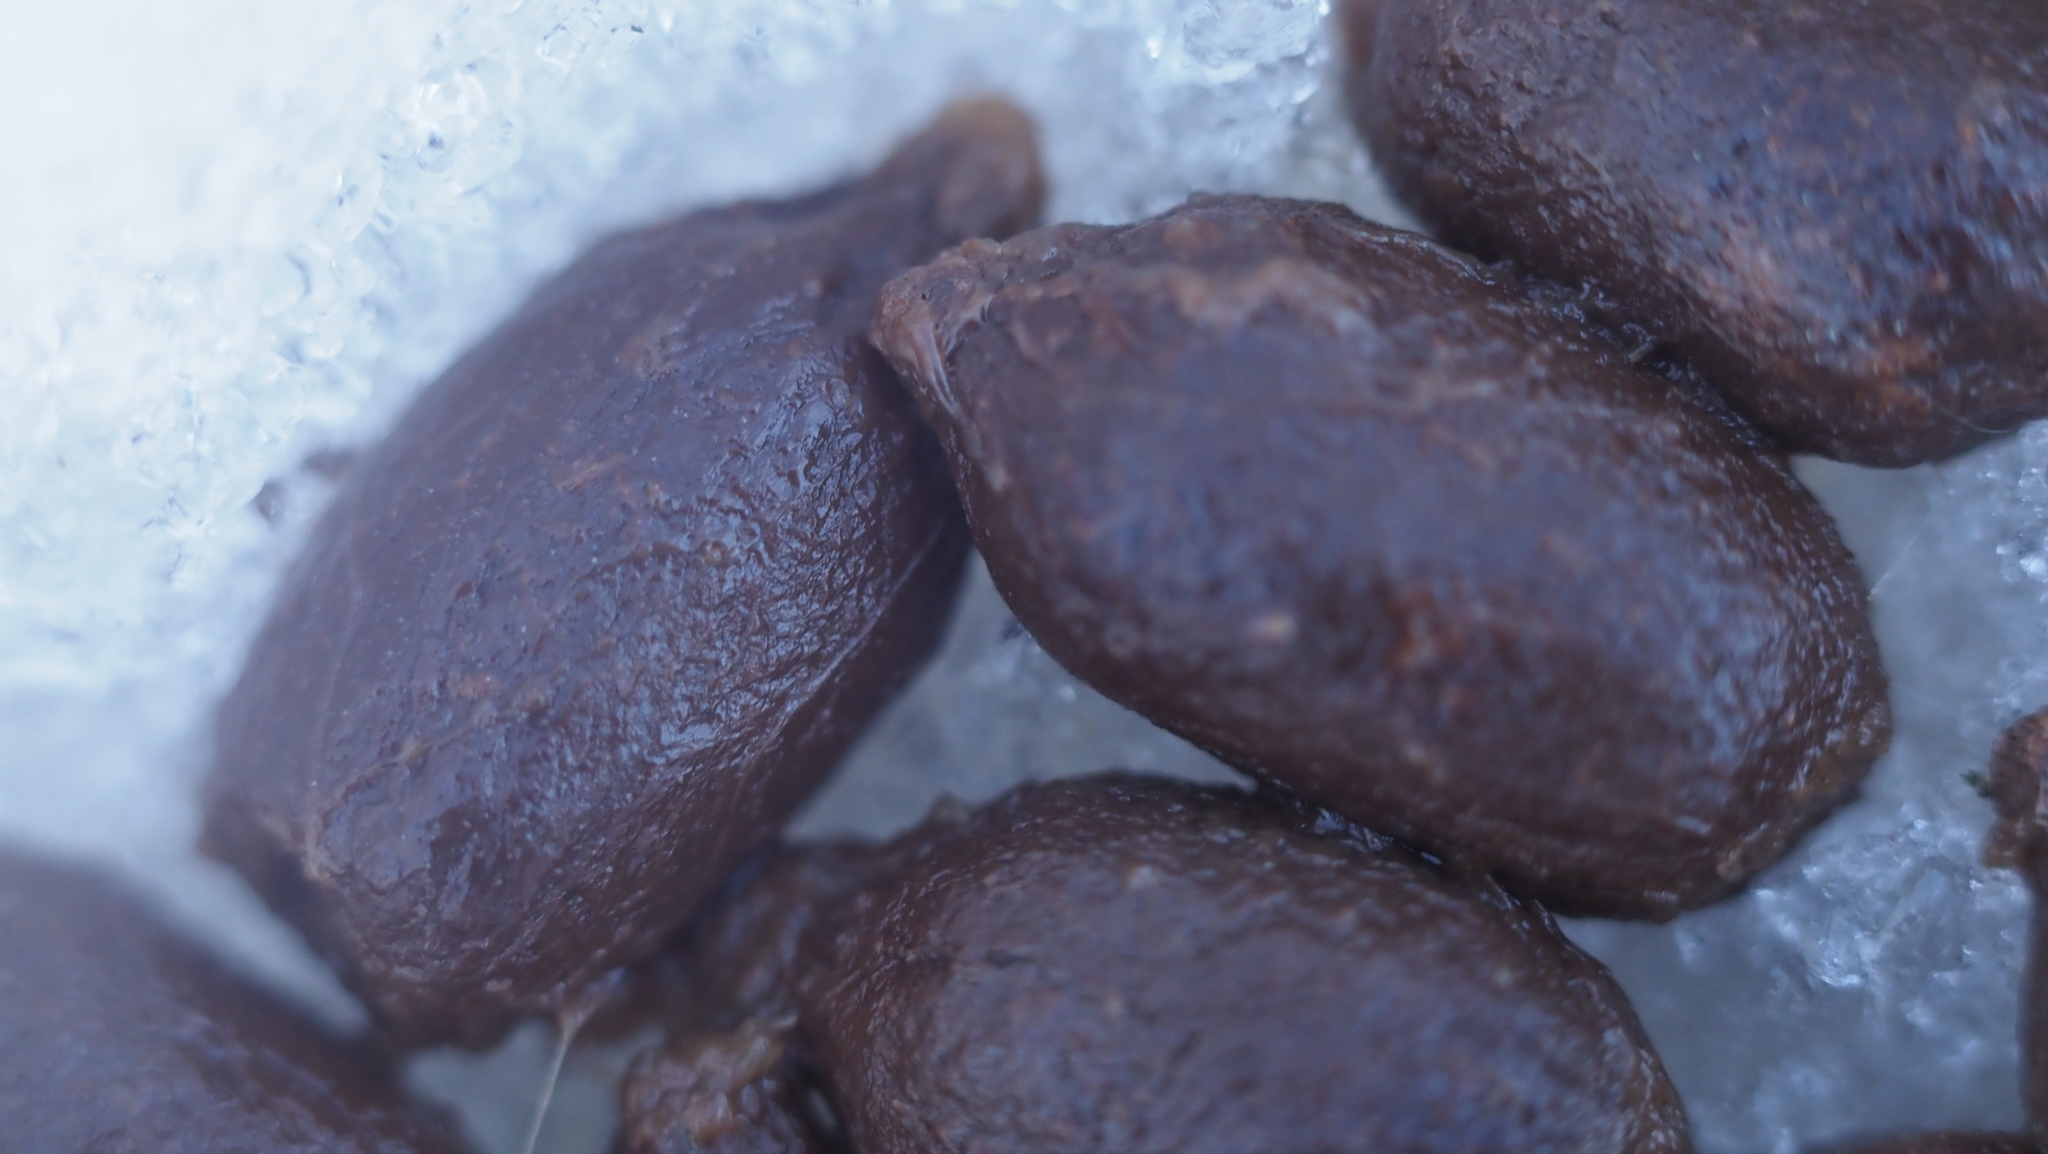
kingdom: Animalia
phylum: Chordata
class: Mammalia
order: Artiodactyla
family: Cervidae
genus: Odocoileus
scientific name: Odocoileus virginianus
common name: White-tailed deer
